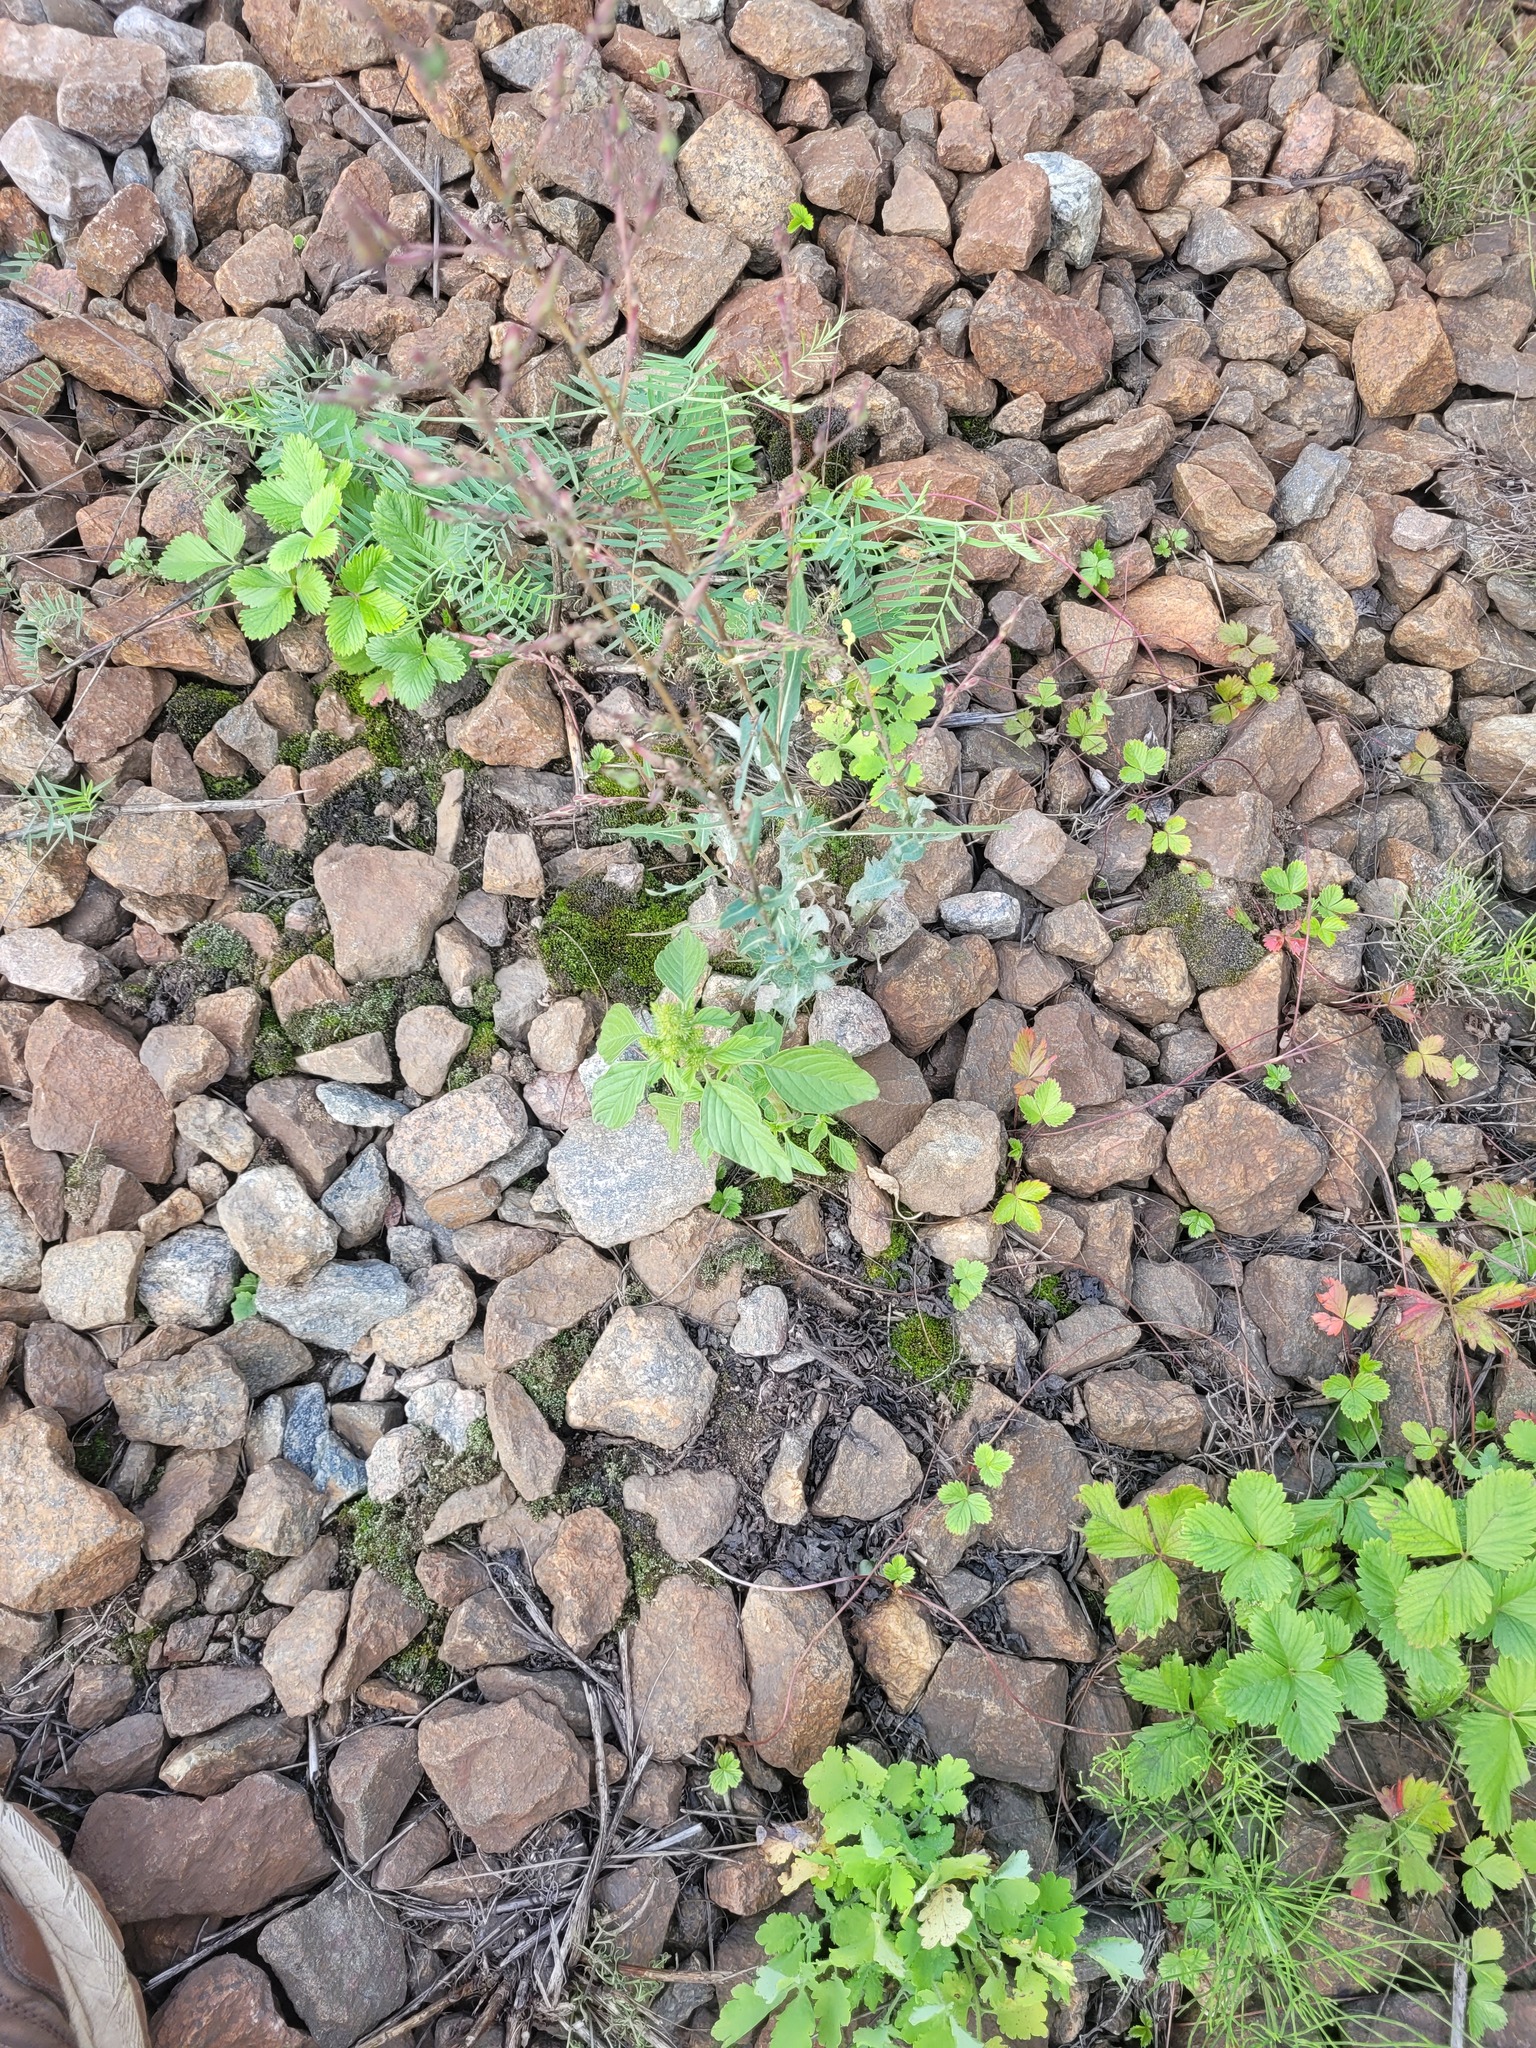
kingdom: Plantae
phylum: Tracheophyta
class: Magnoliopsida
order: Caryophyllales
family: Amaranthaceae
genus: Amaranthus
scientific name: Amaranthus retroflexus
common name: Redroot amaranth
